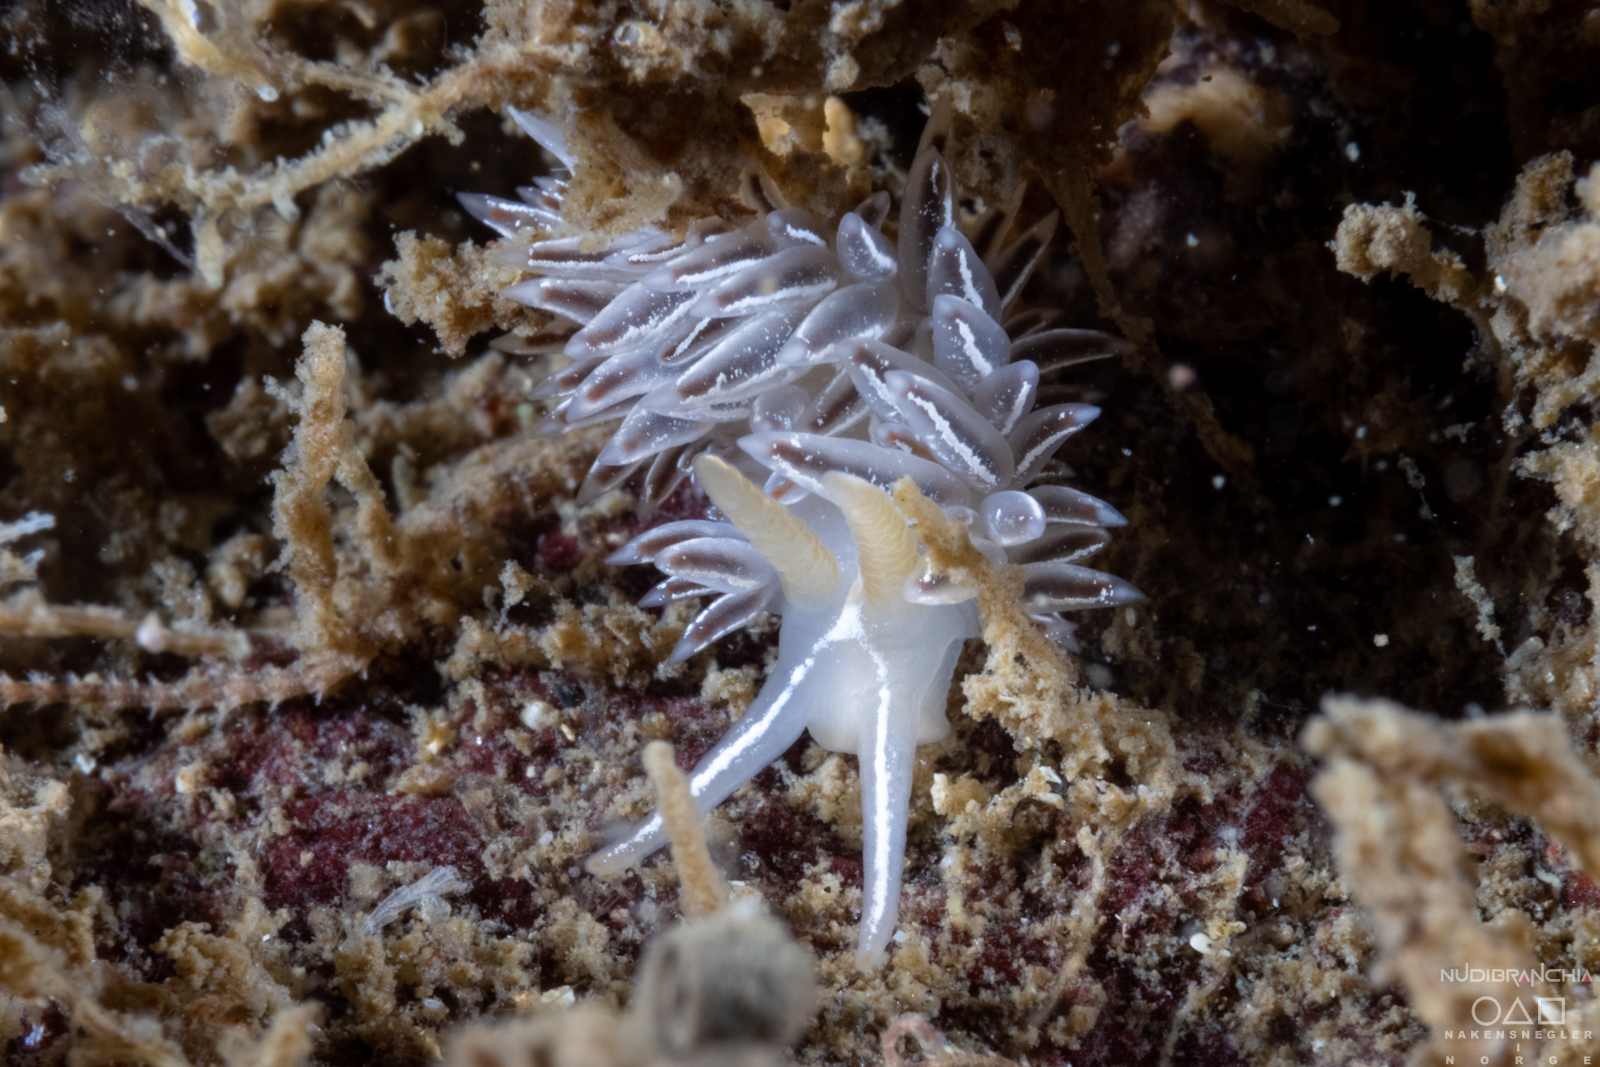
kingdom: Animalia
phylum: Mollusca
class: Gastropoda
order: Nudibranchia
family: Coryphellidae
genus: Coryphella
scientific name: Coryphella chriskaugei
